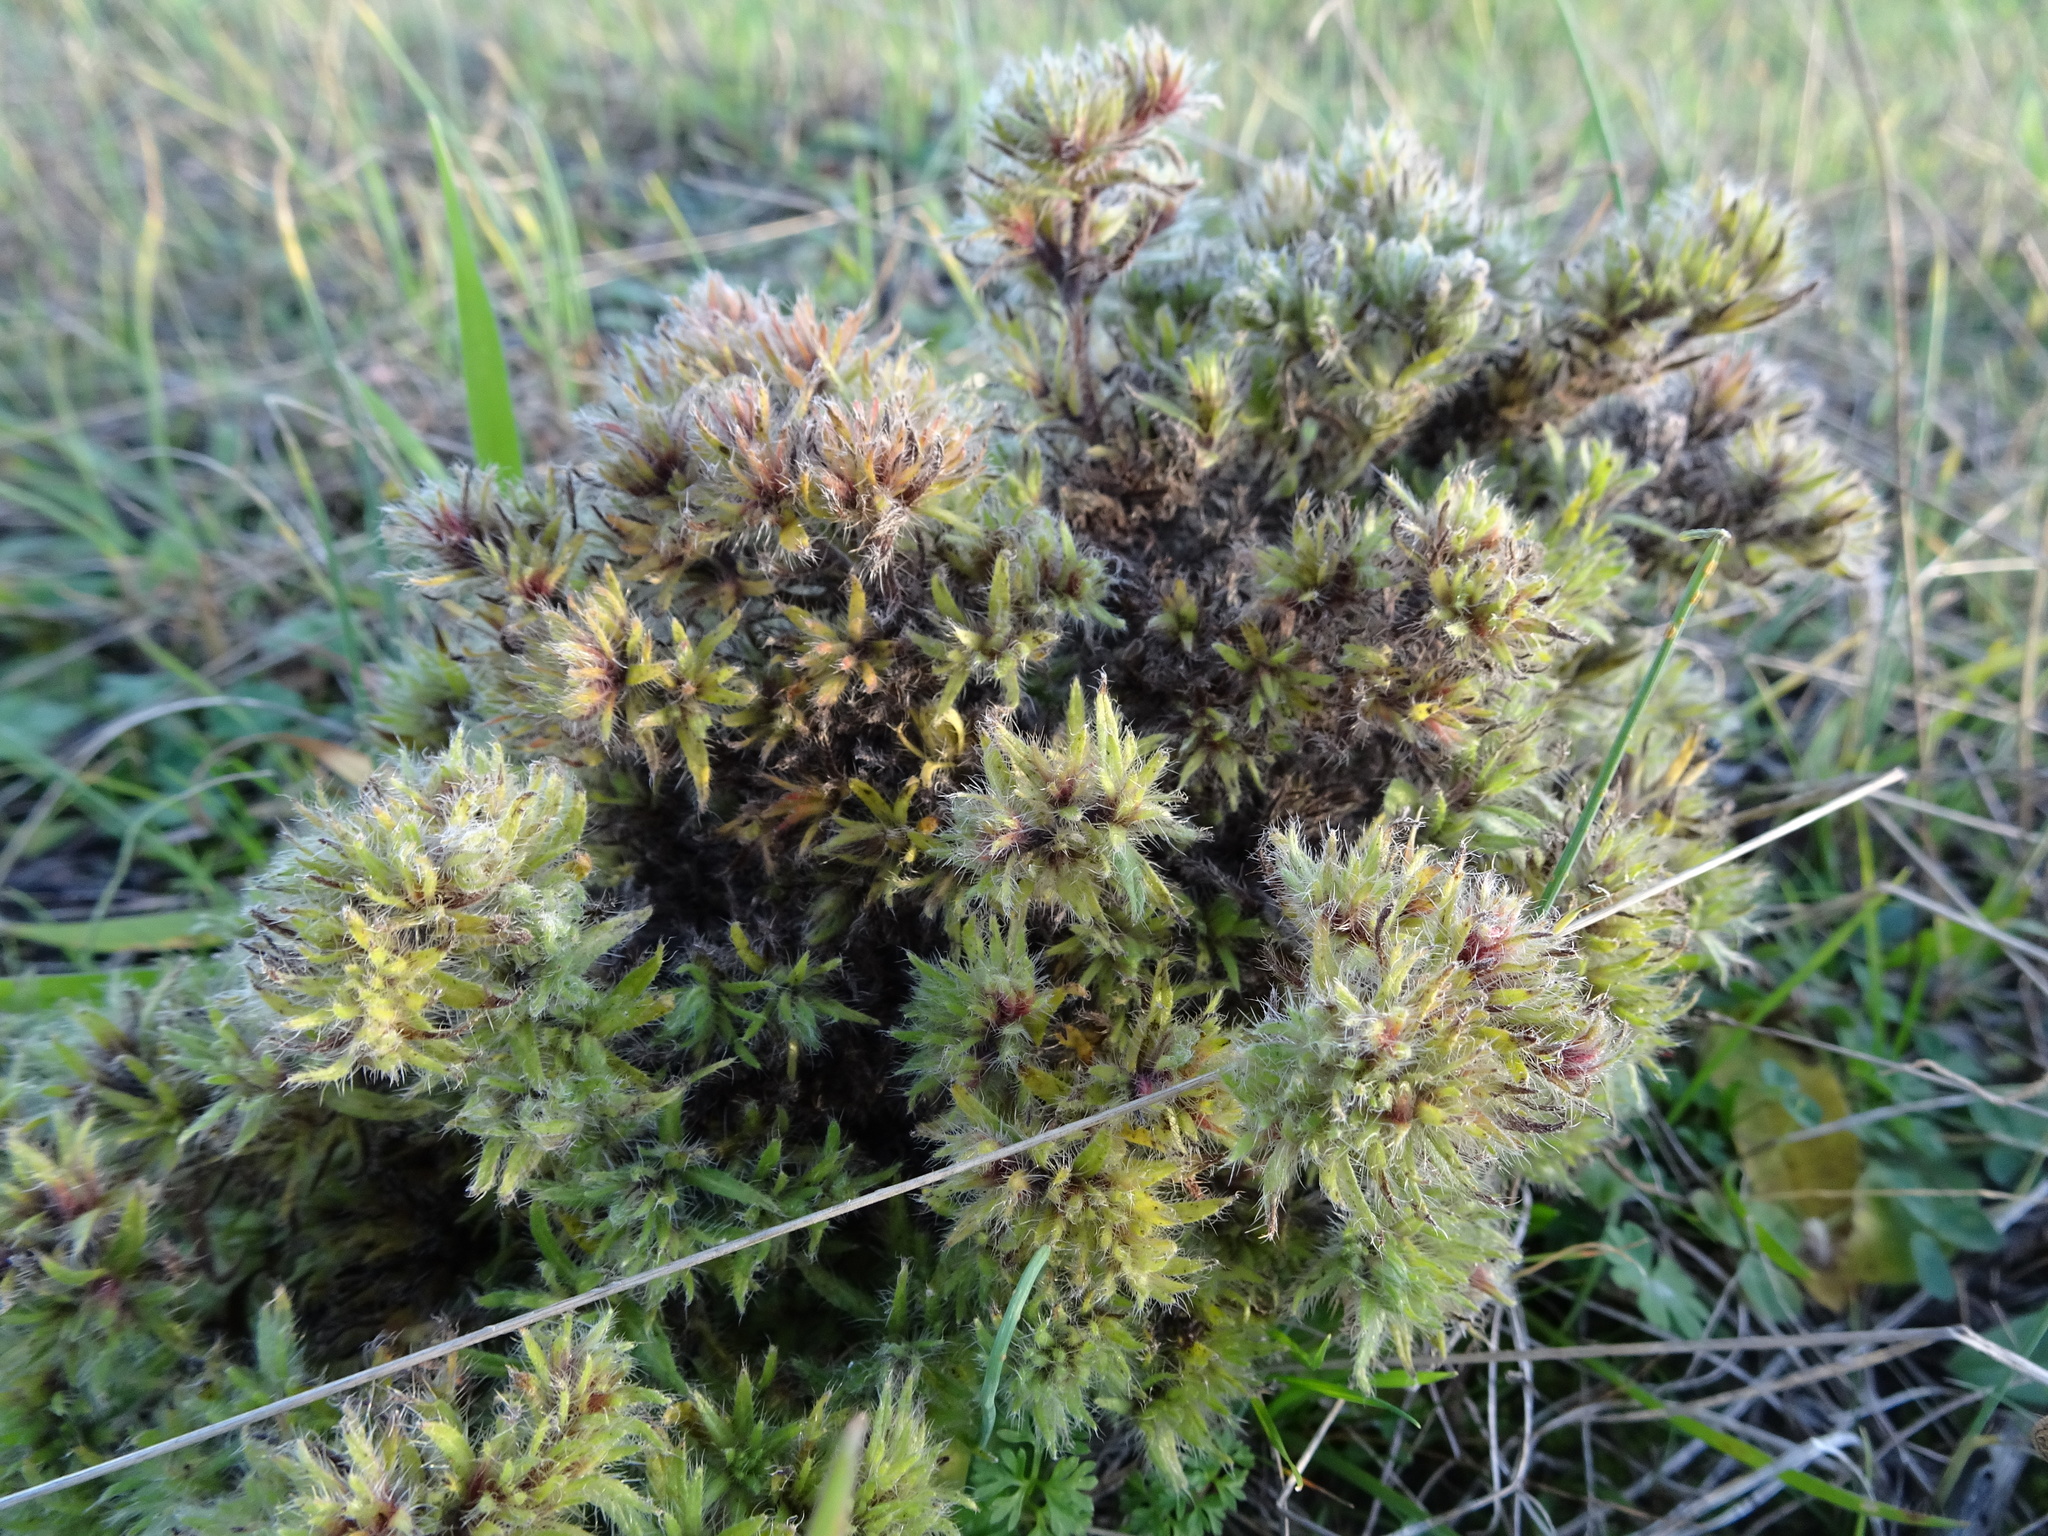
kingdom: Animalia
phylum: Arthropoda
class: Arachnida
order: Trombidiformes
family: Eriophyidae
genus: Aceria
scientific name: Aceria echii
